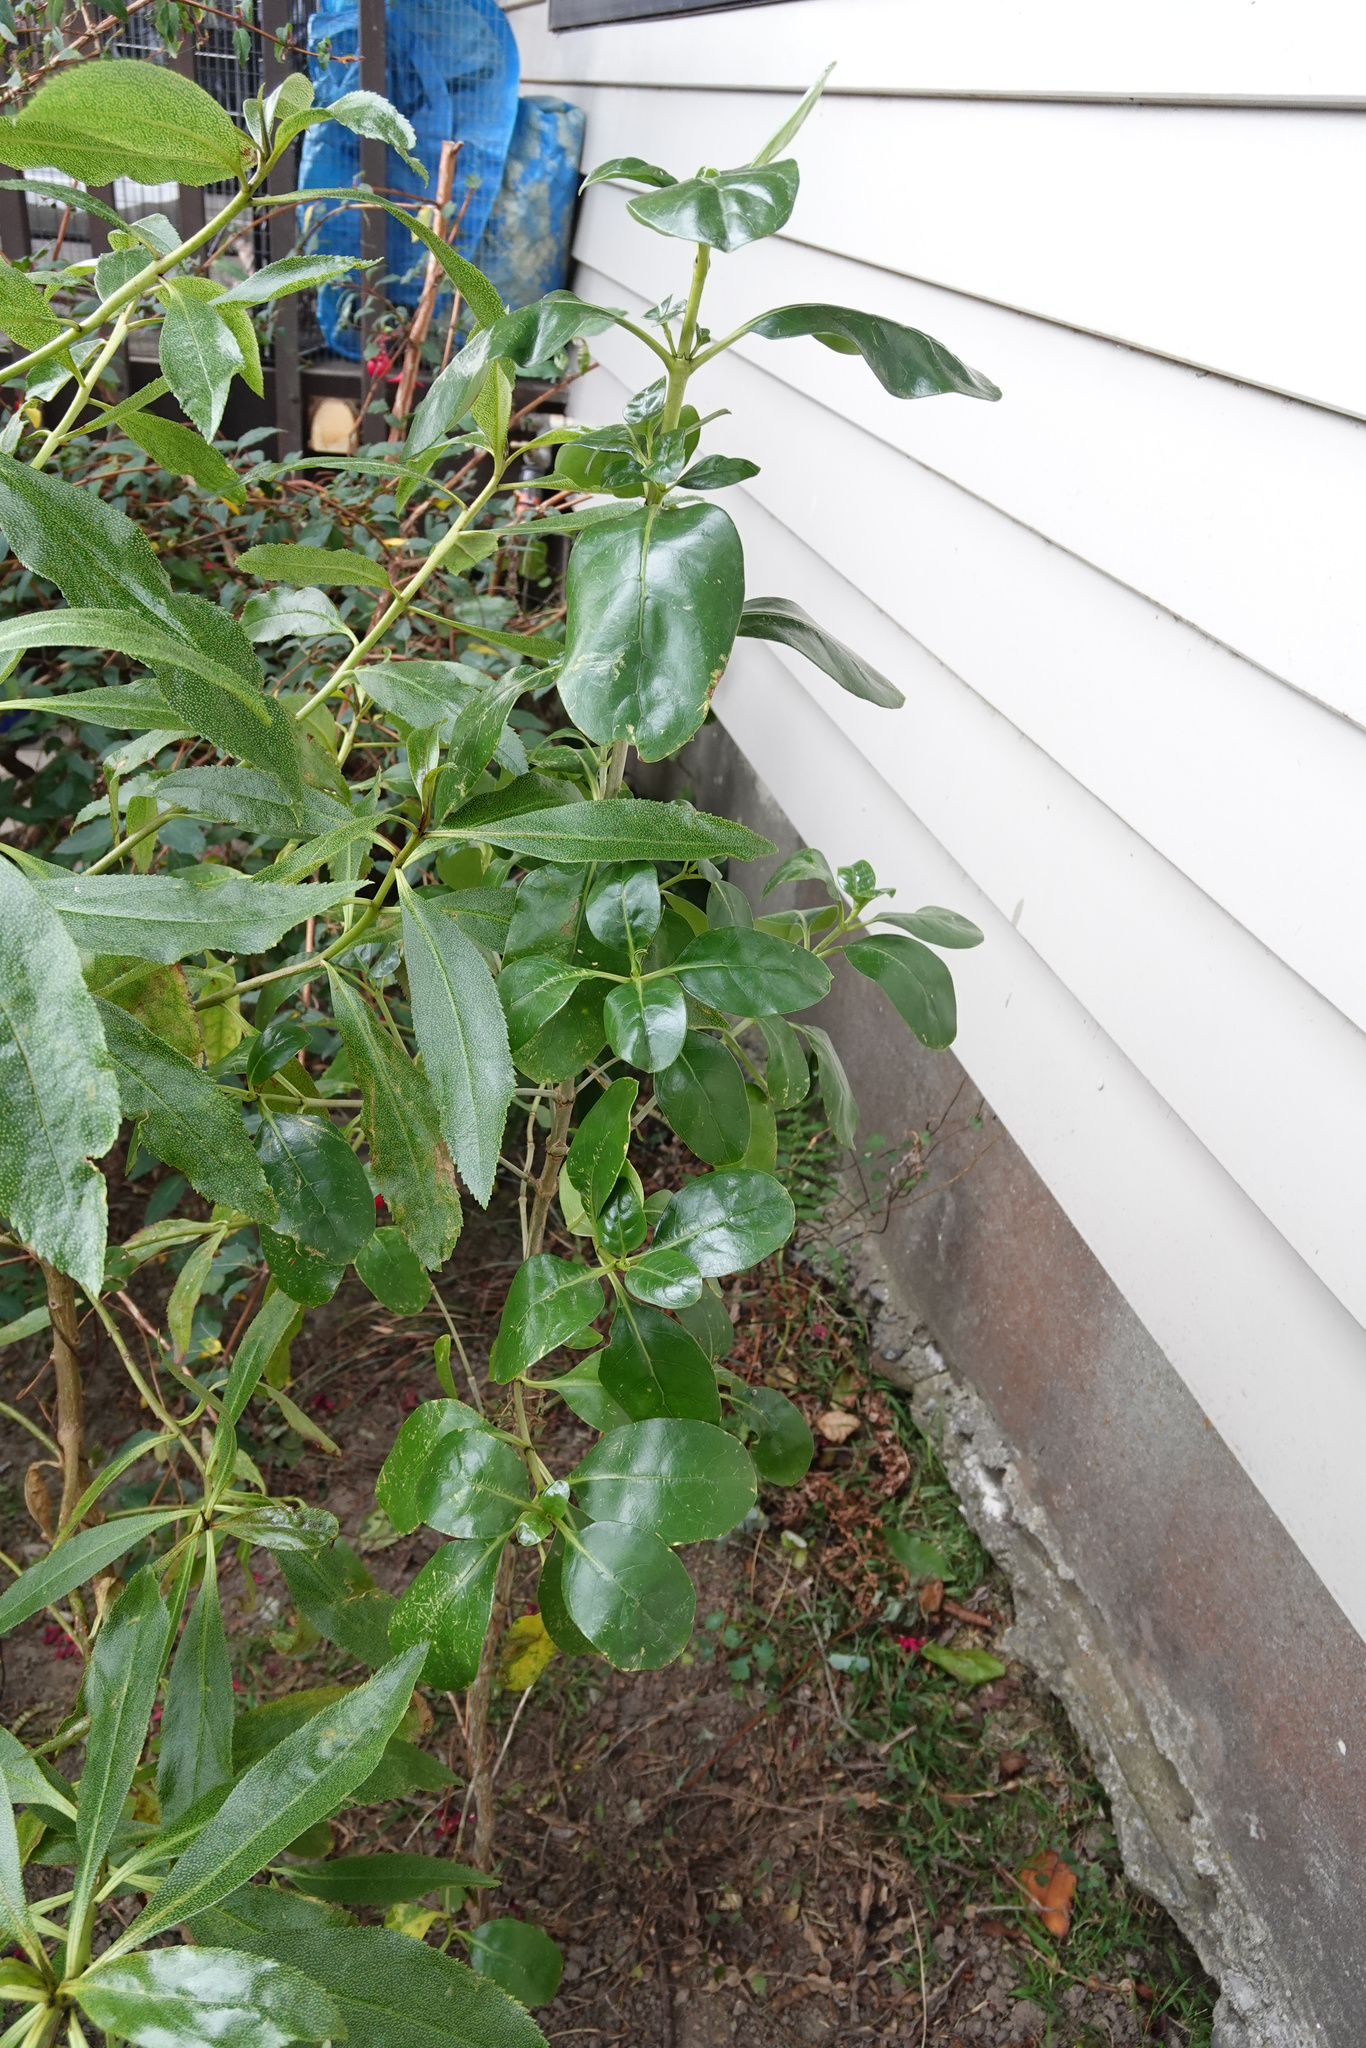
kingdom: Plantae
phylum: Tracheophyta
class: Magnoliopsida
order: Gentianales
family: Rubiaceae
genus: Coprosma
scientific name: Coprosma repens
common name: Tree bedstraw
